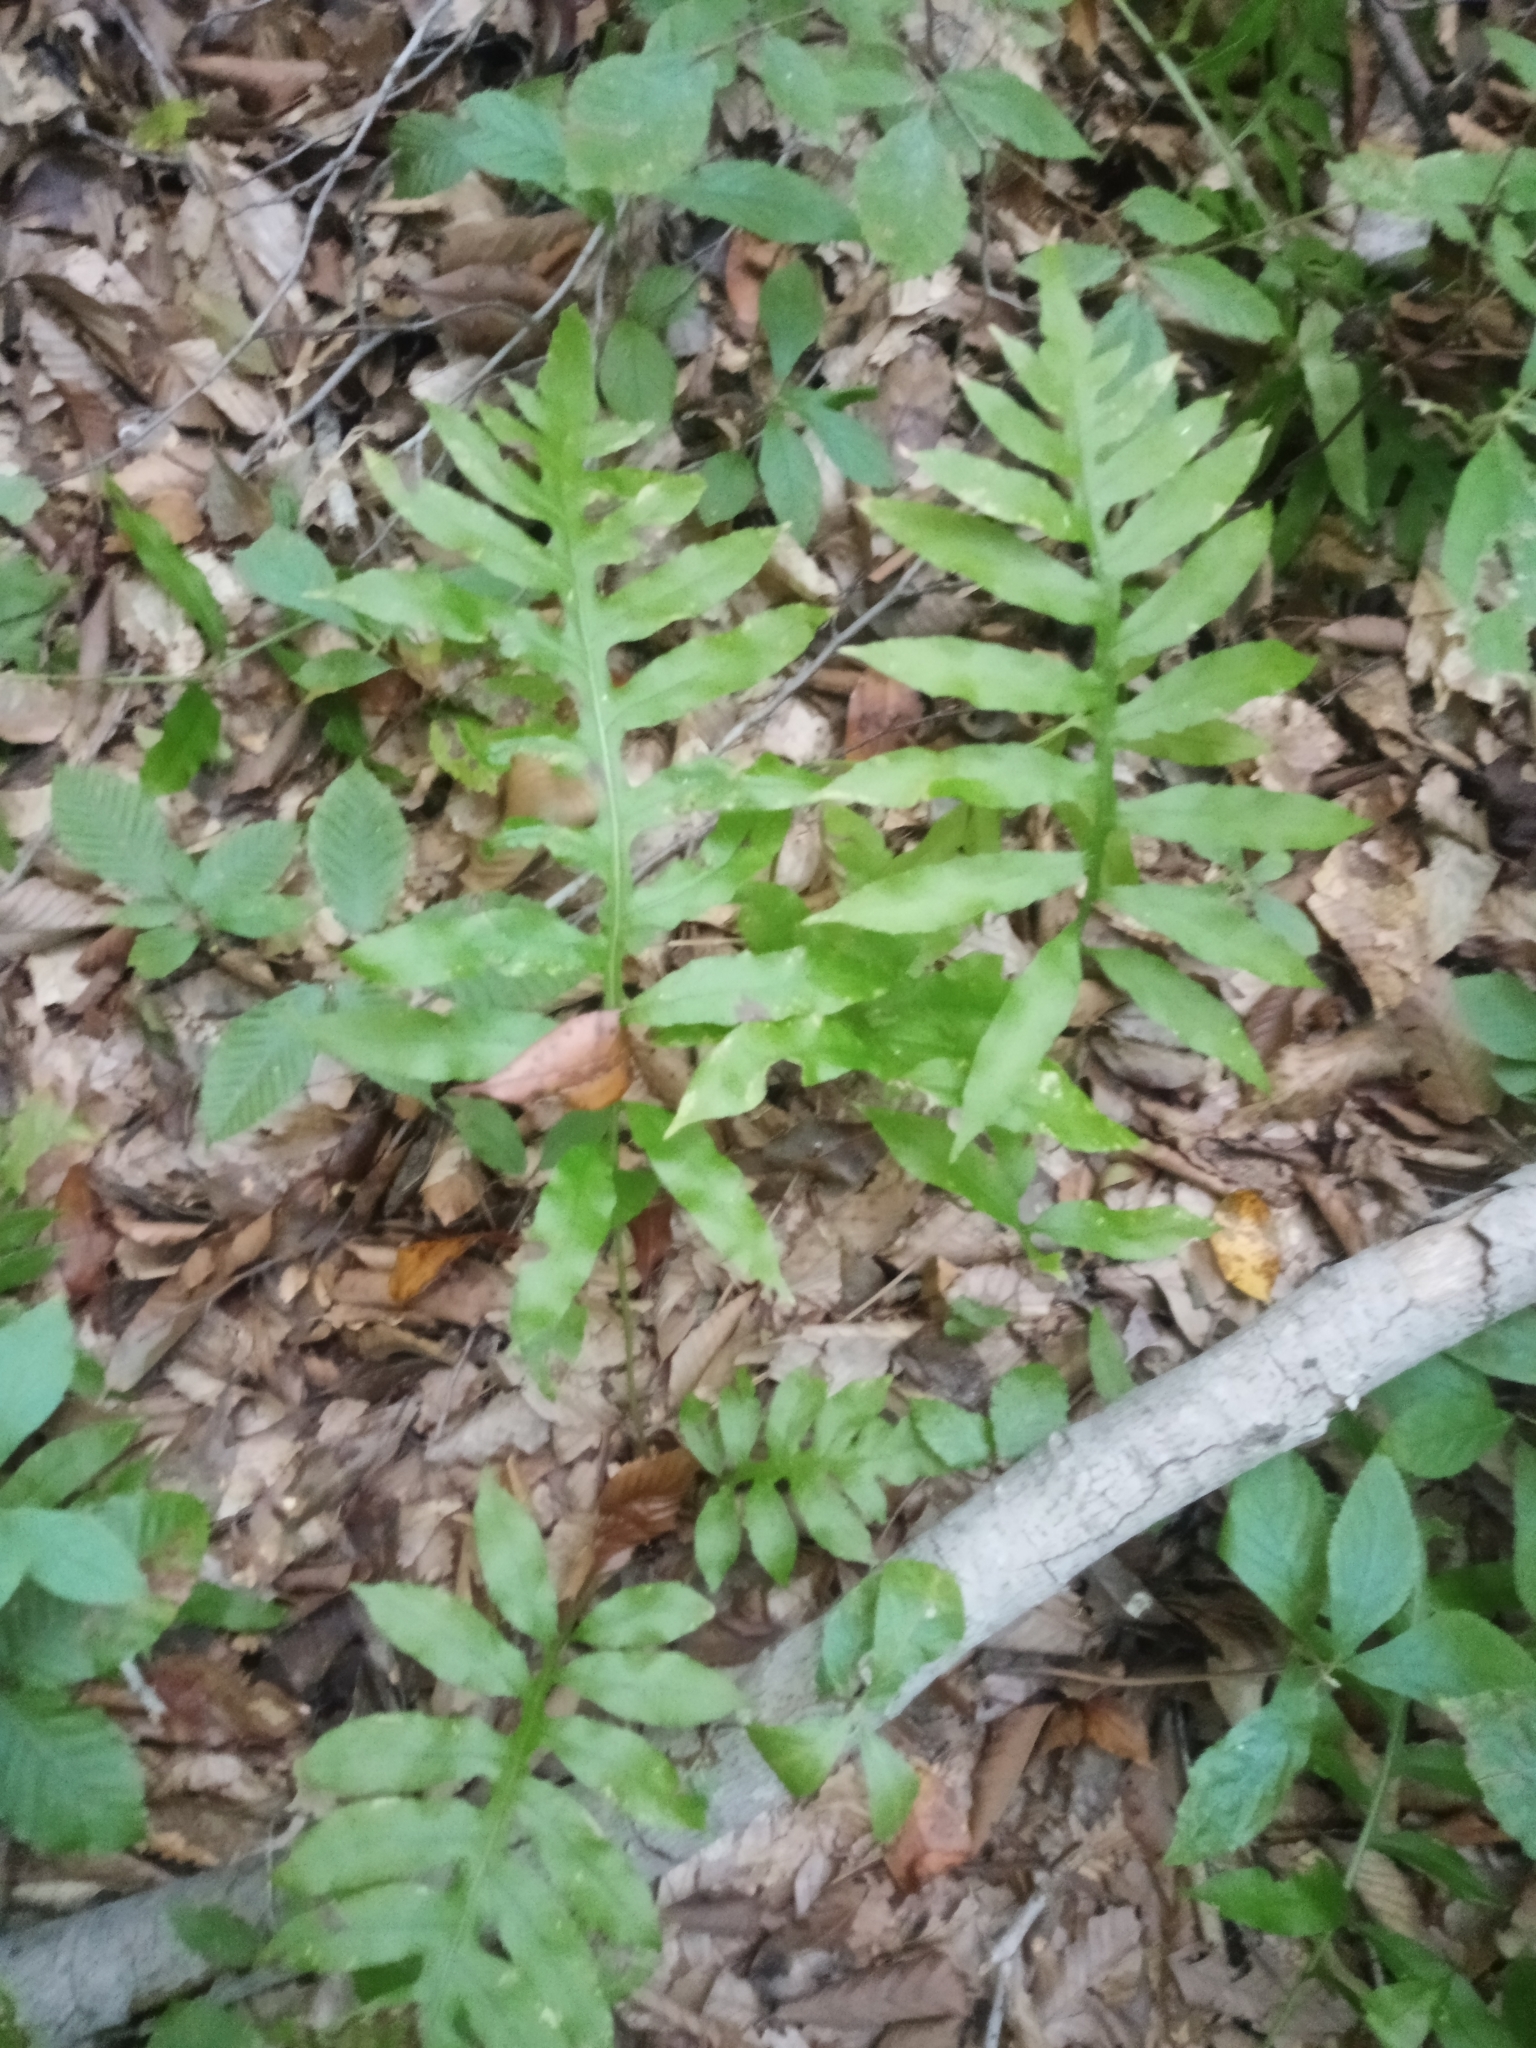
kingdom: Plantae
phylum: Tracheophyta
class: Polypodiopsida
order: Polypodiales
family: Blechnaceae
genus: Lorinseria
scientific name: Lorinseria areolata
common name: Dwarf chain fern
